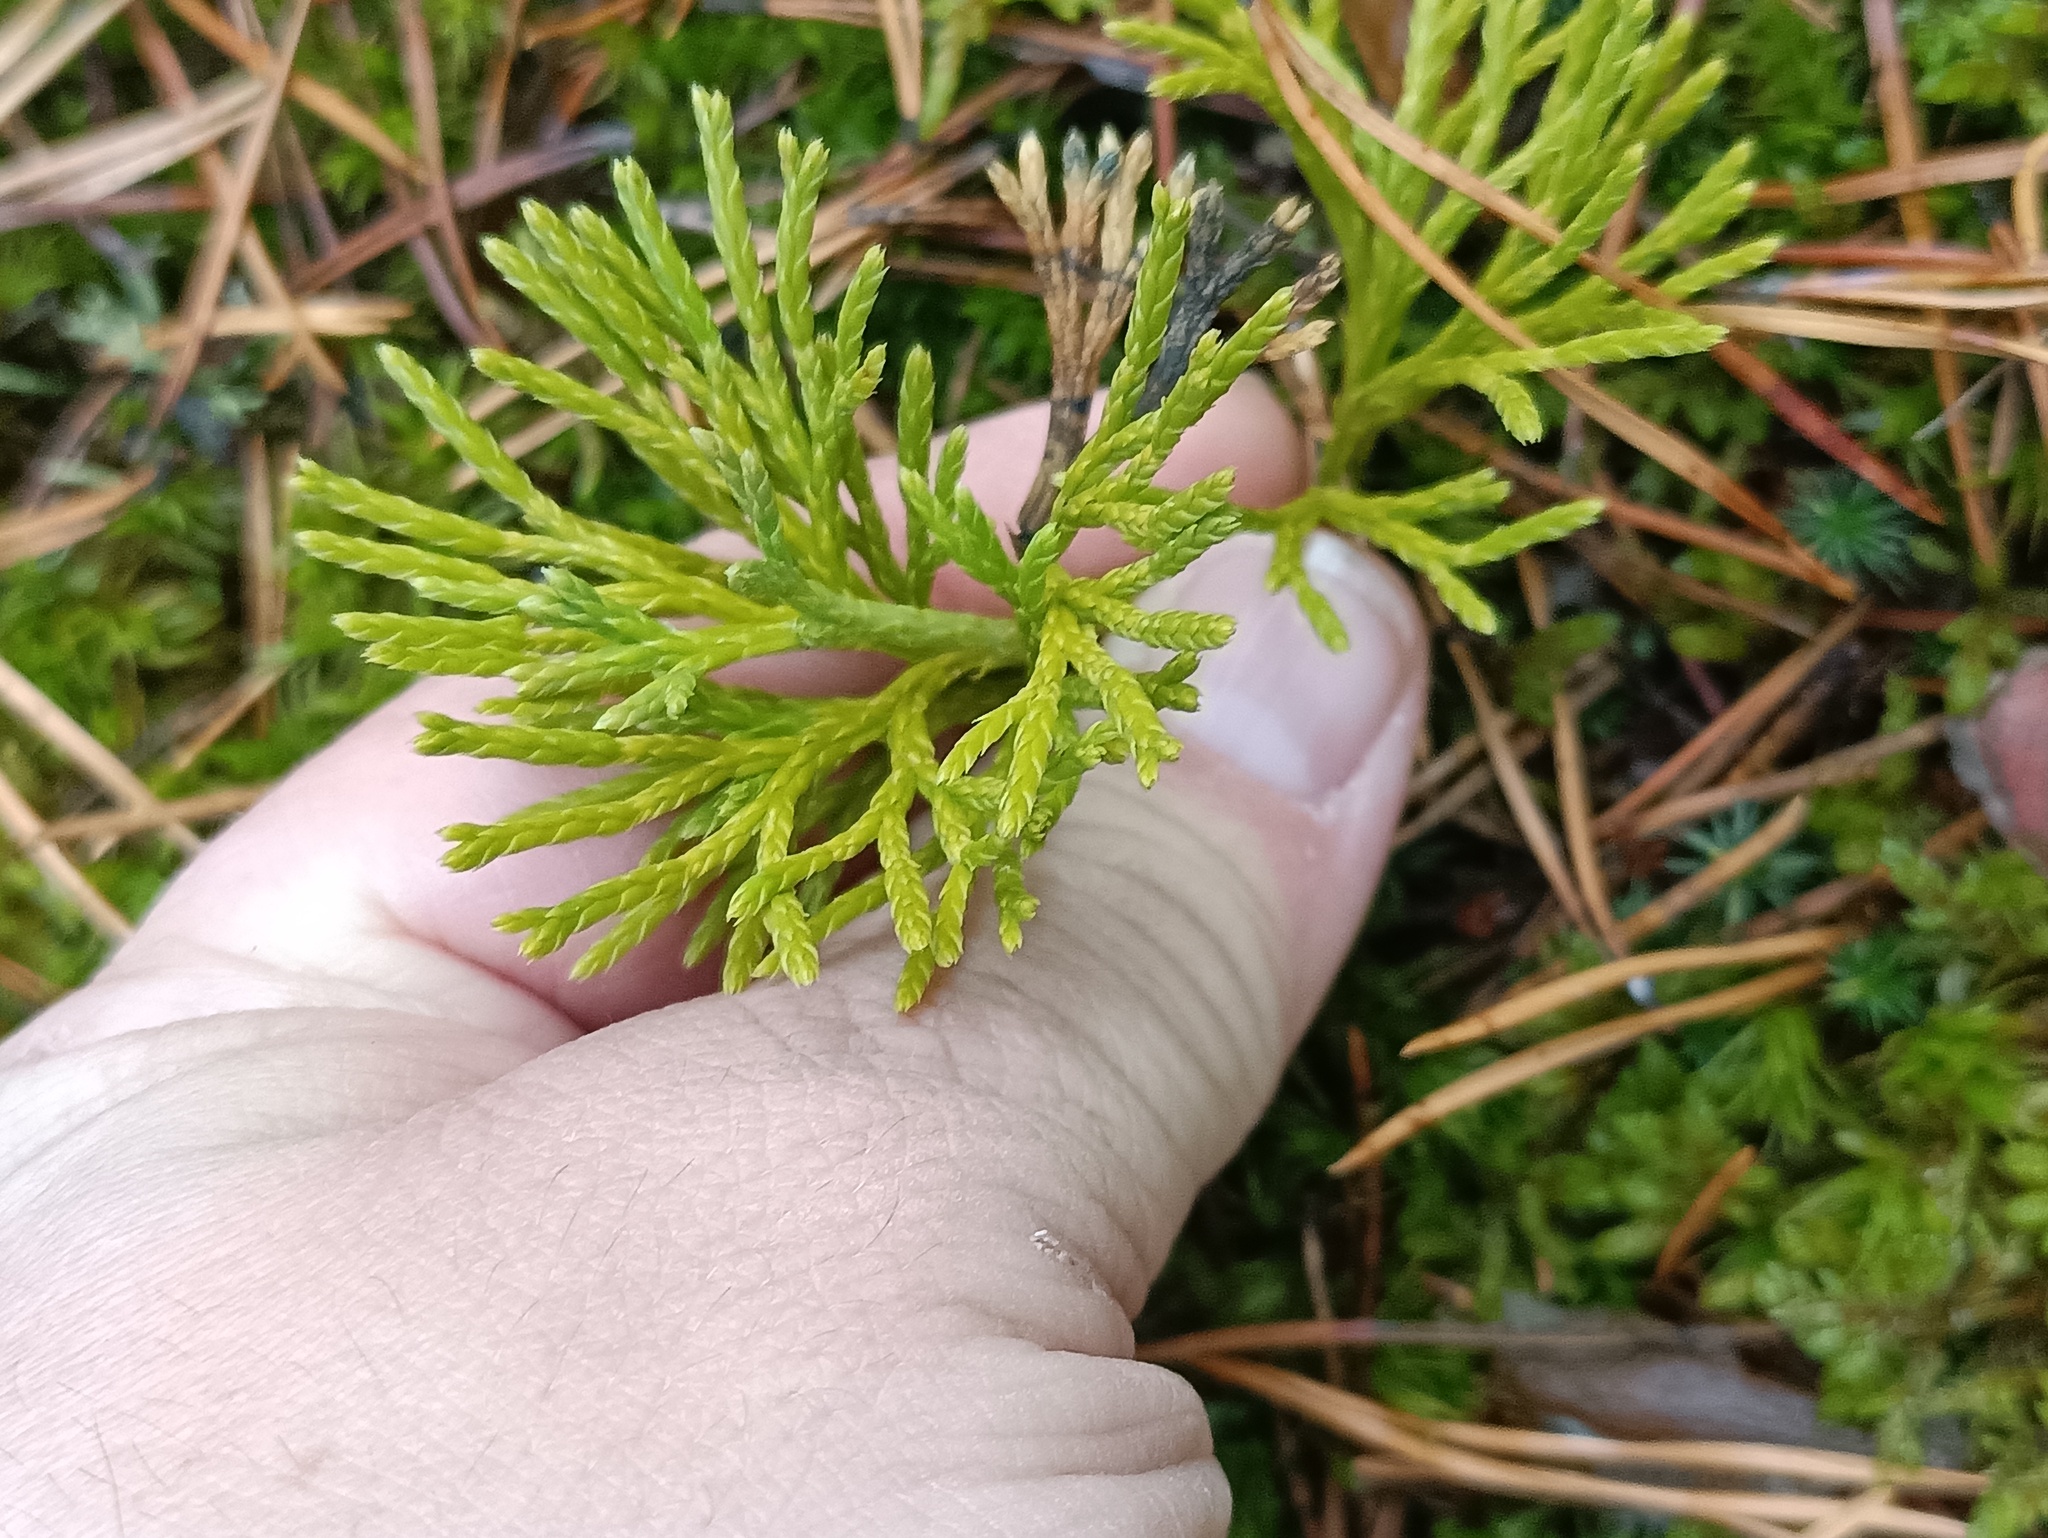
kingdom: Plantae
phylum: Tracheophyta
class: Lycopodiopsida
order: Lycopodiales
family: Lycopodiaceae
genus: Diphasiastrum
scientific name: Diphasiastrum complanatum
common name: Northern running-pine
